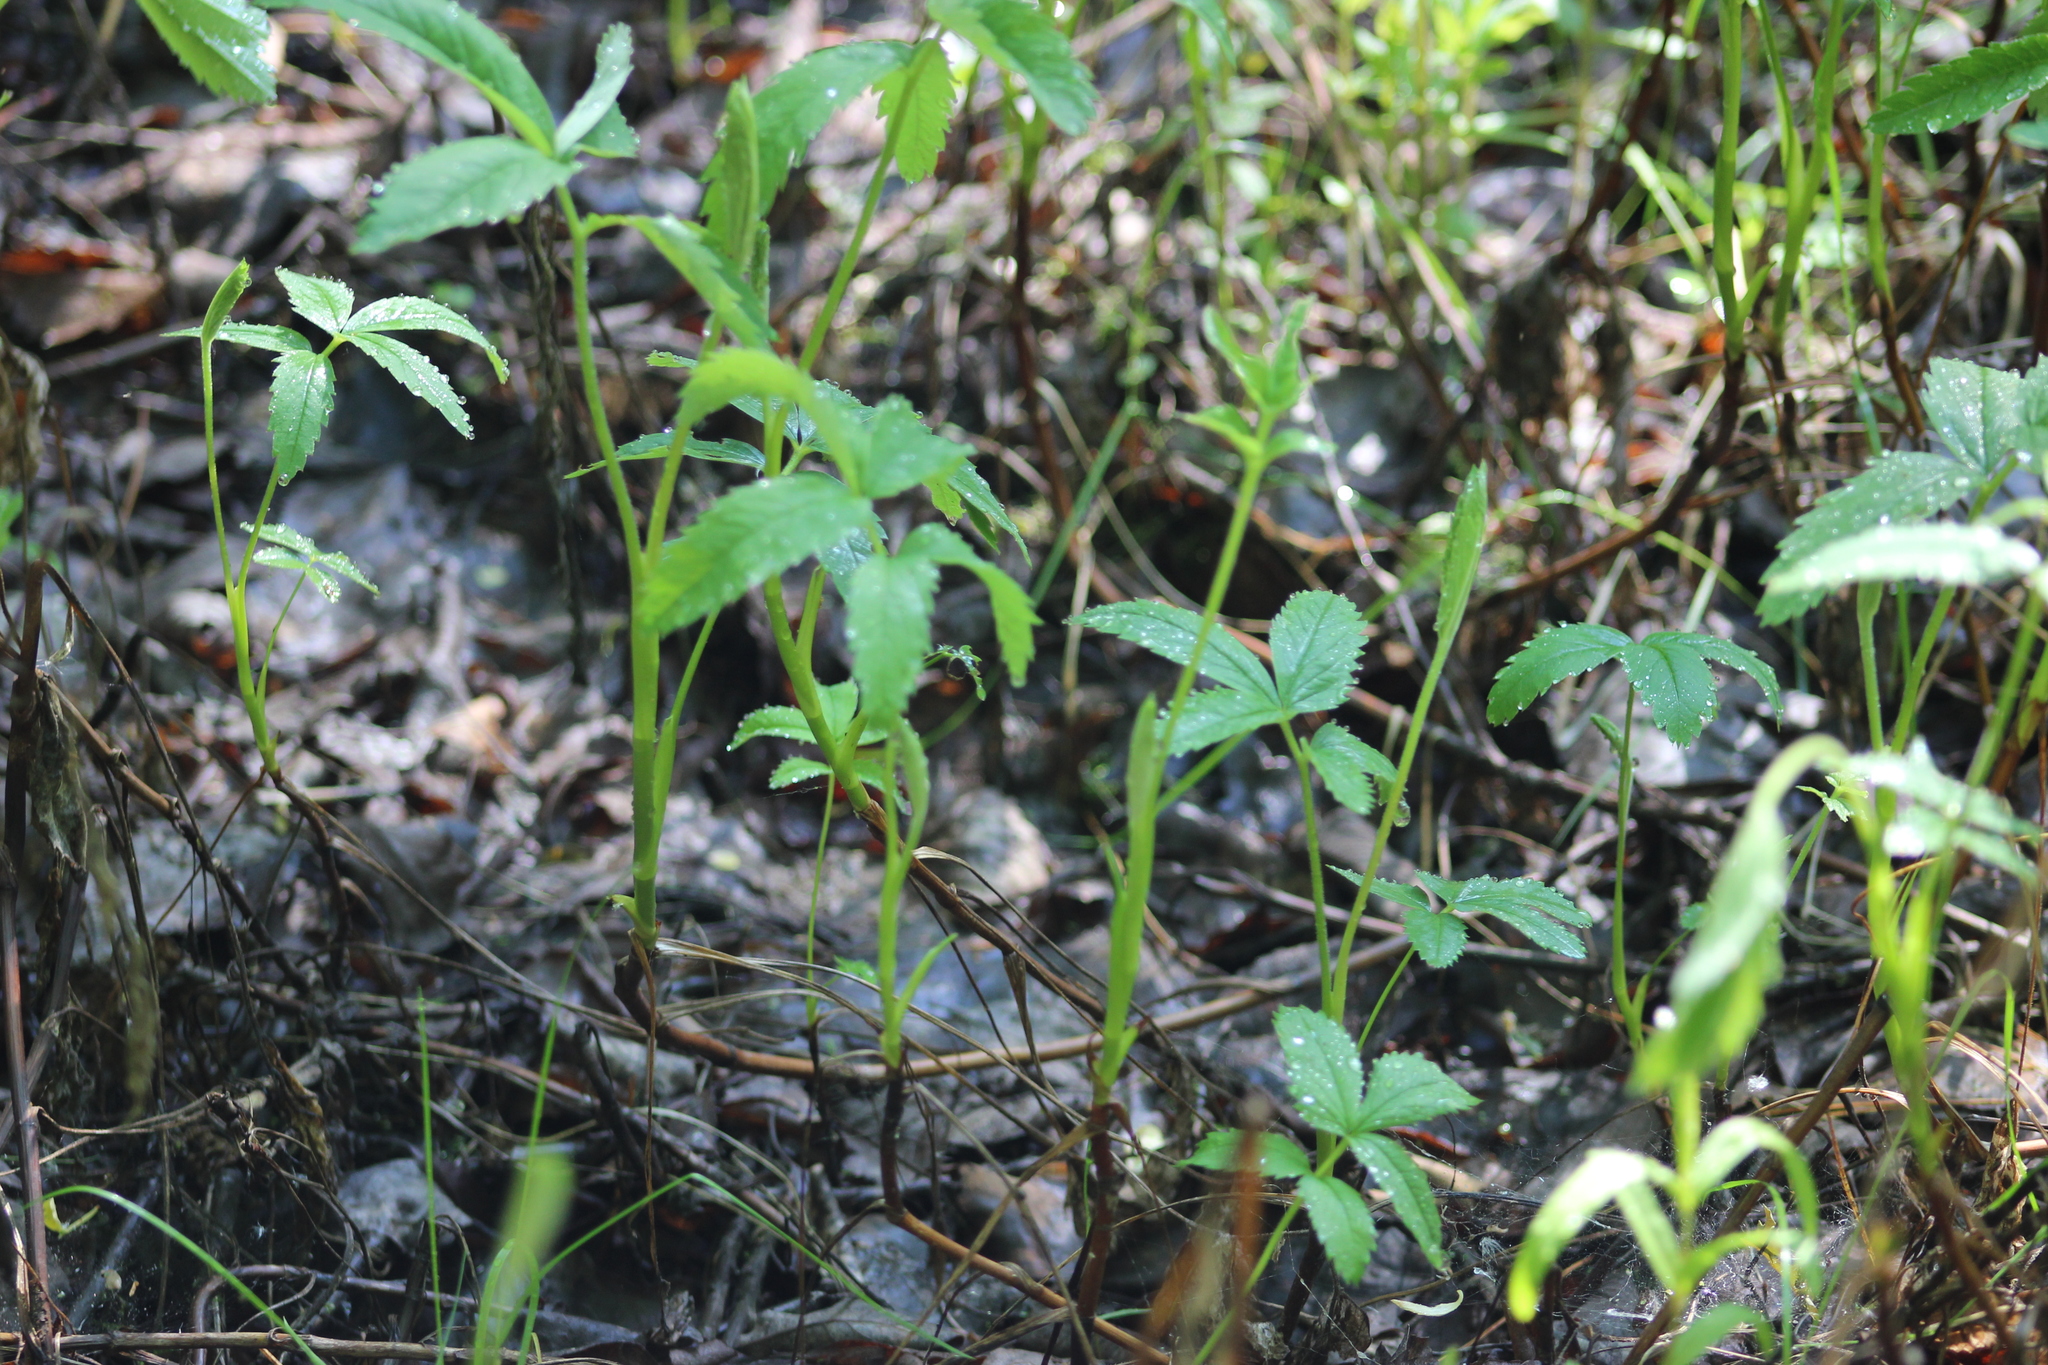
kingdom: Plantae
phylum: Tracheophyta
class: Magnoliopsida
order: Rosales
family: Rosaceae
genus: Comarum
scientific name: Comarum palustre
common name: Marsh cinquefoil
